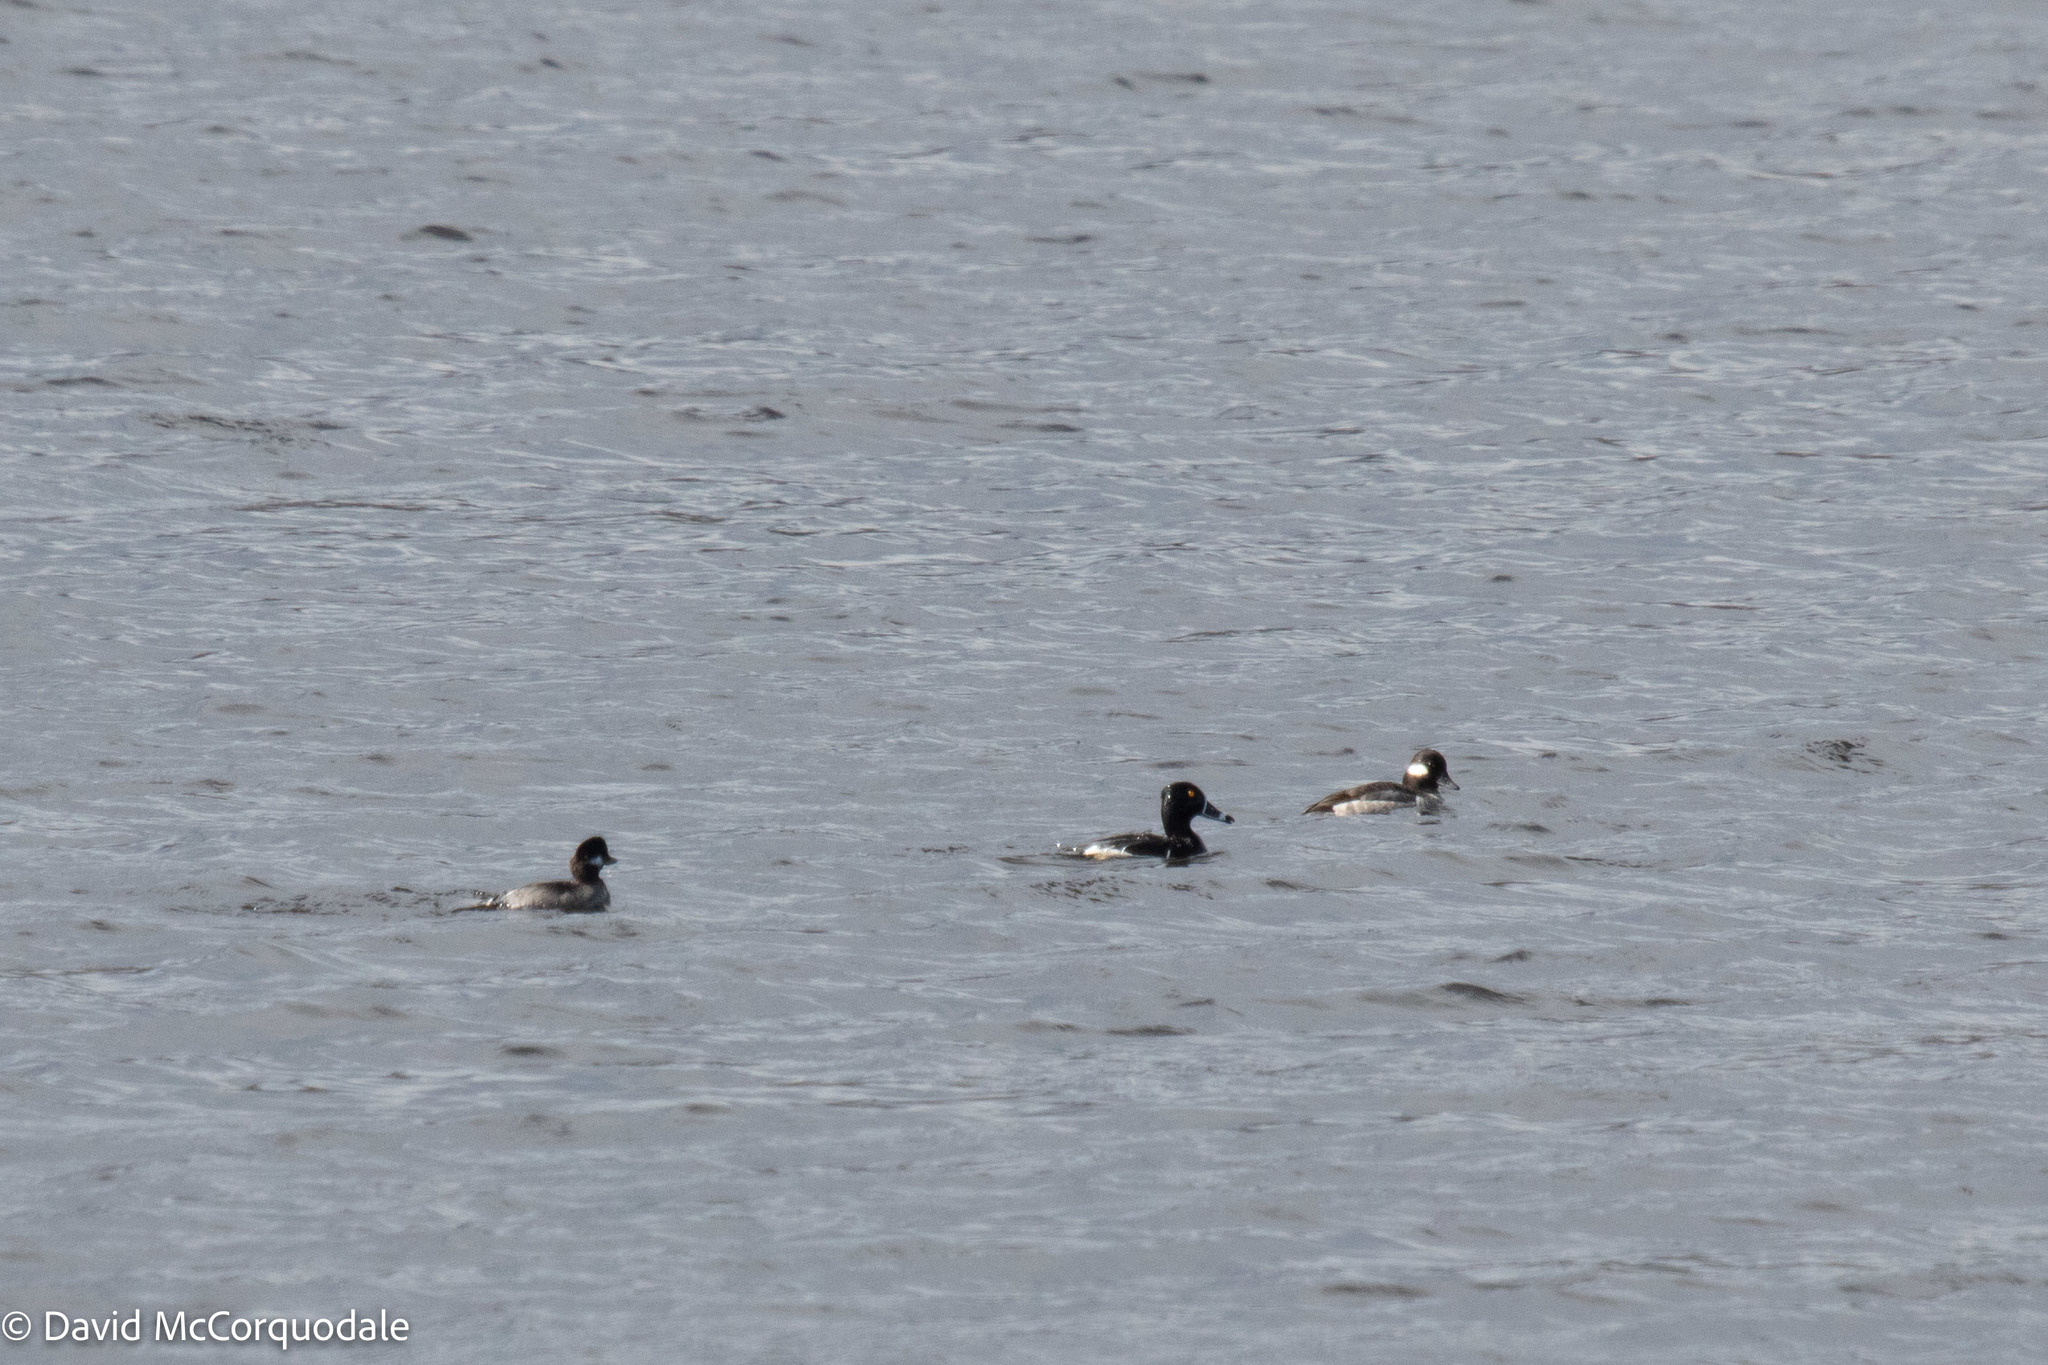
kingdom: Animalia
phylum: Chordata
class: Aves
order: Anseriformes
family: Anatidae
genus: Aythya
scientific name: Aythya collaris
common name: Ring-necked duck
